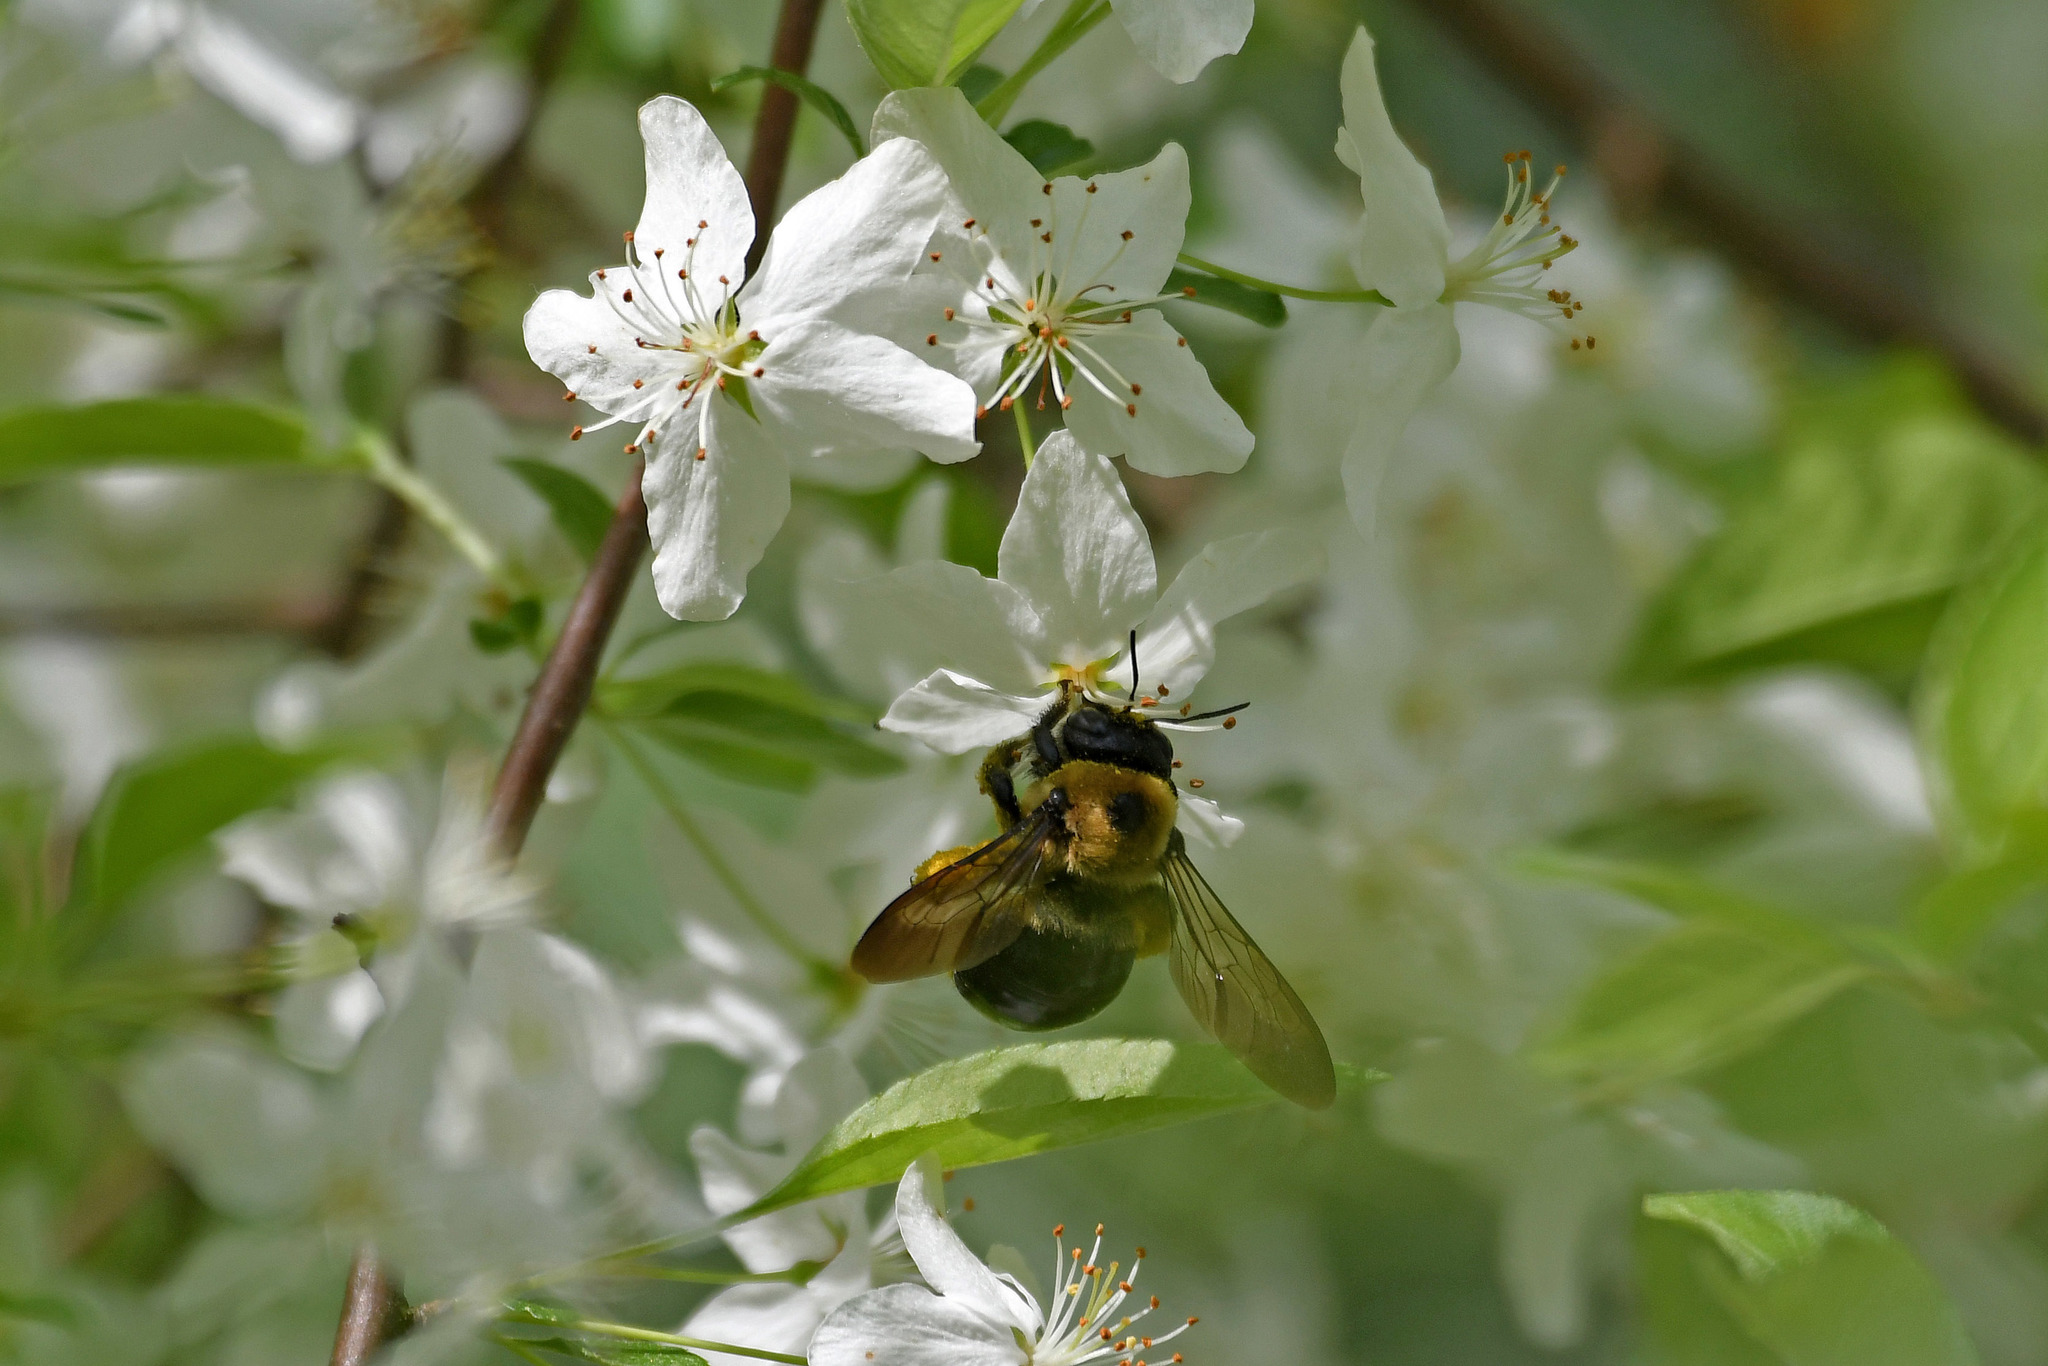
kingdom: Animalia
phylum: Arthropoda
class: Insecta
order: Hymenoptera
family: Apidae
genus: Xylocopa
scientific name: Xylocopa virginica
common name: Carpenter bee
